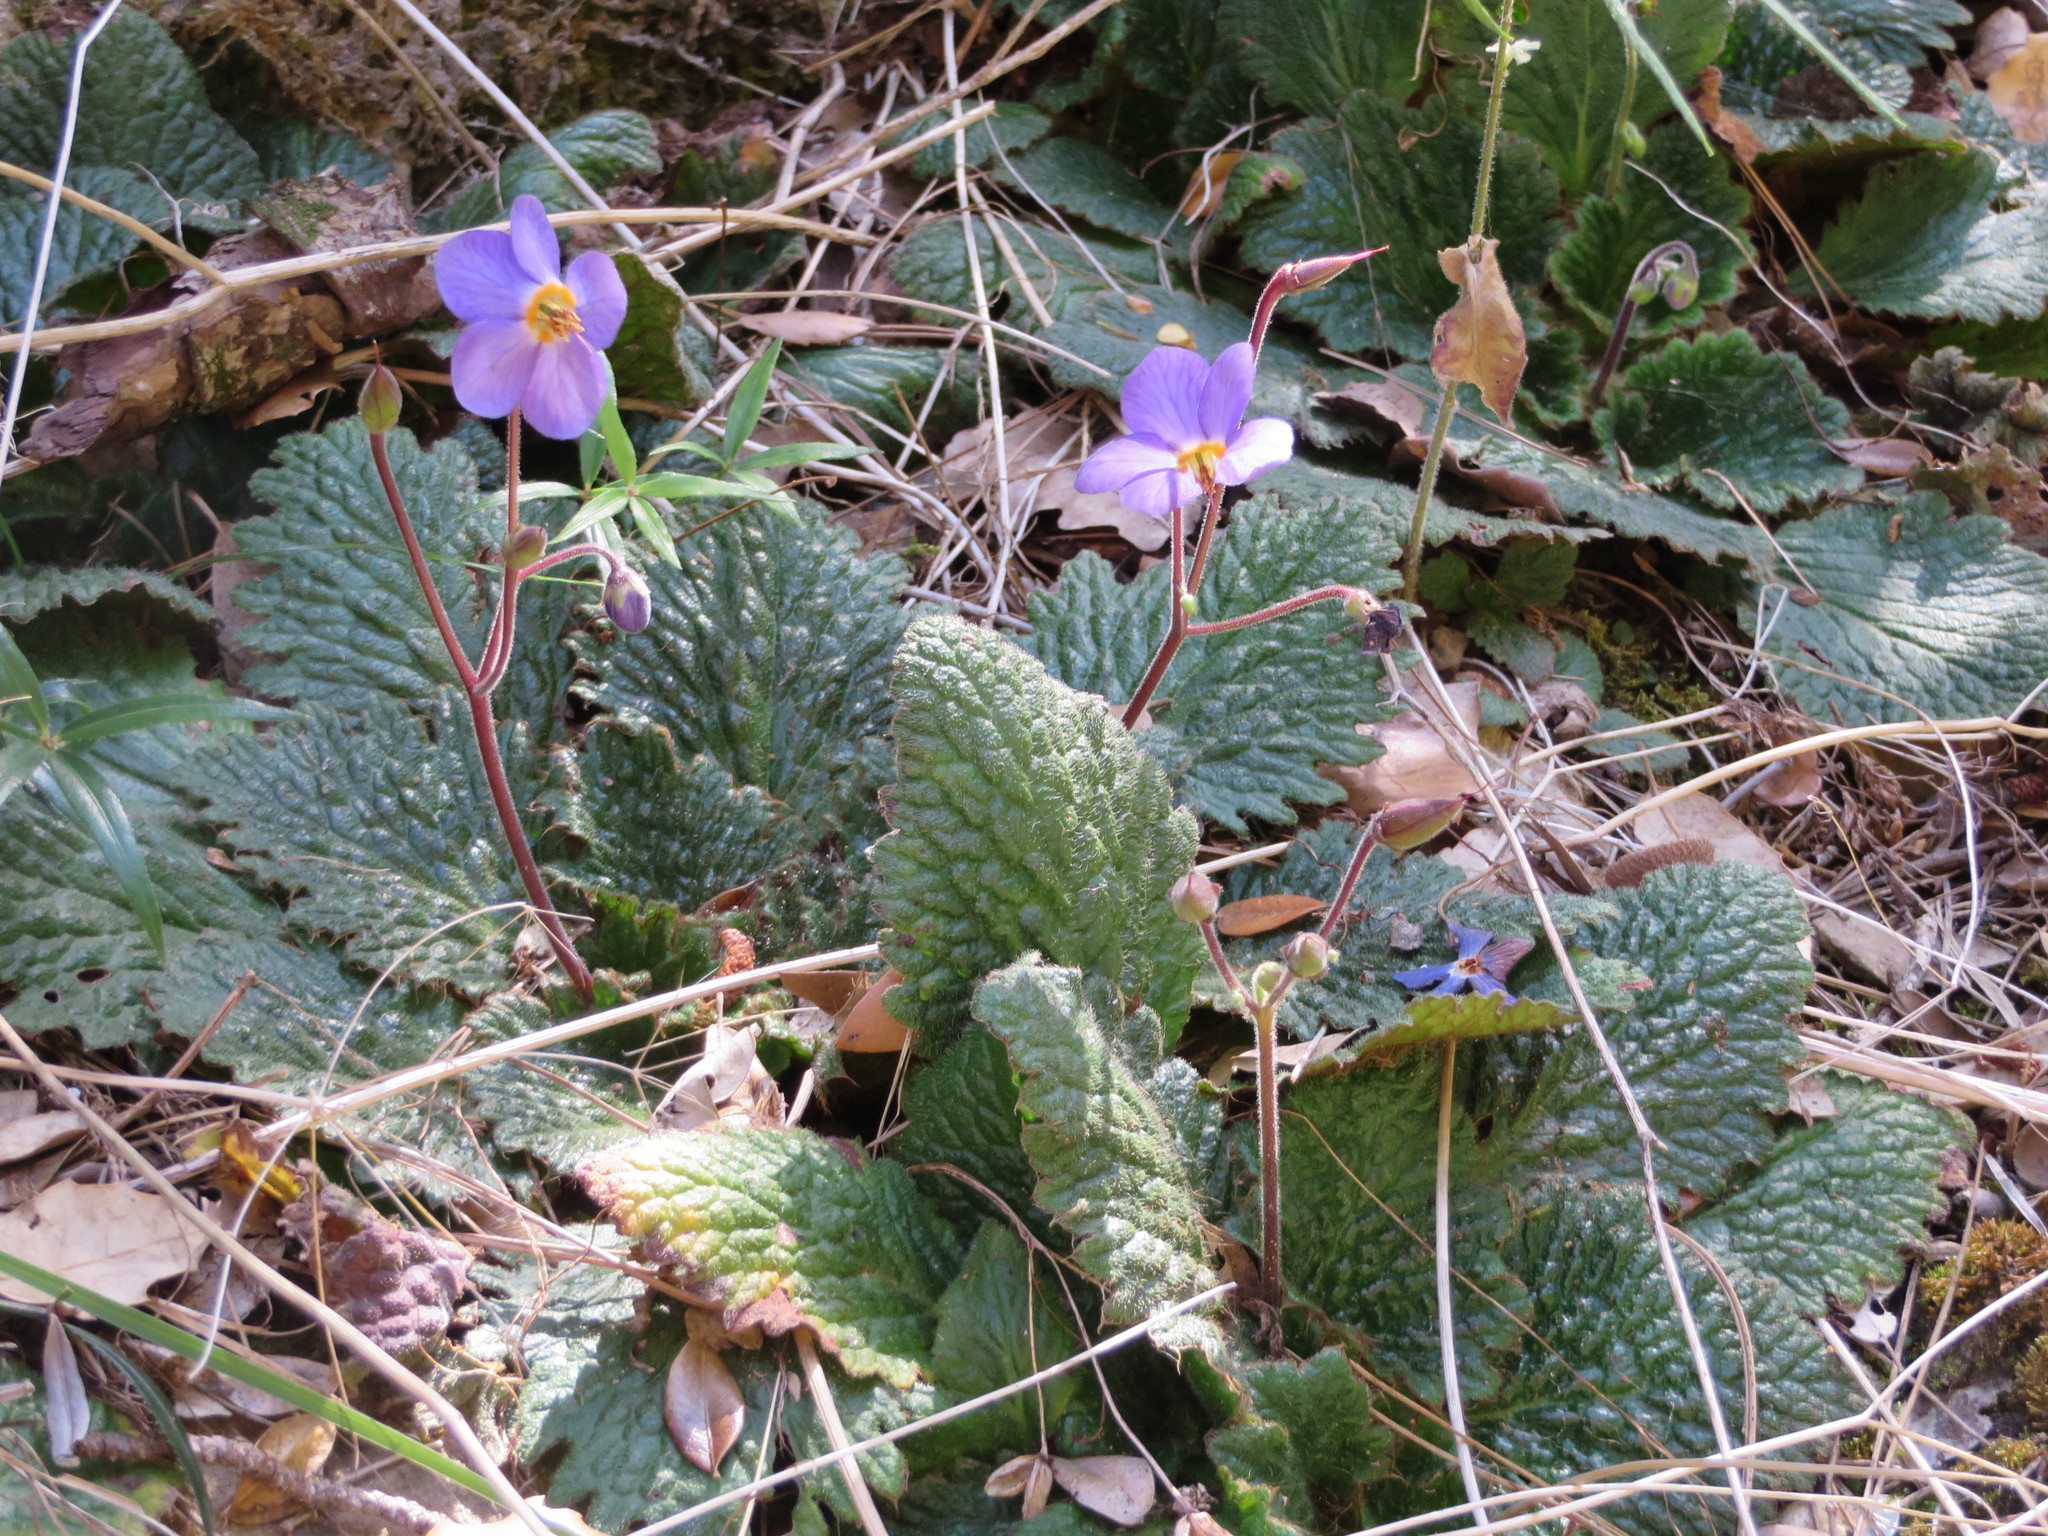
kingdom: Plantae
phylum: Tracheophyta
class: Magnoliopsida
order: Lamiales
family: Gesneriaceae
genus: Ramonda
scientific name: Ramonda myconi
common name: Pyrenean-violet
